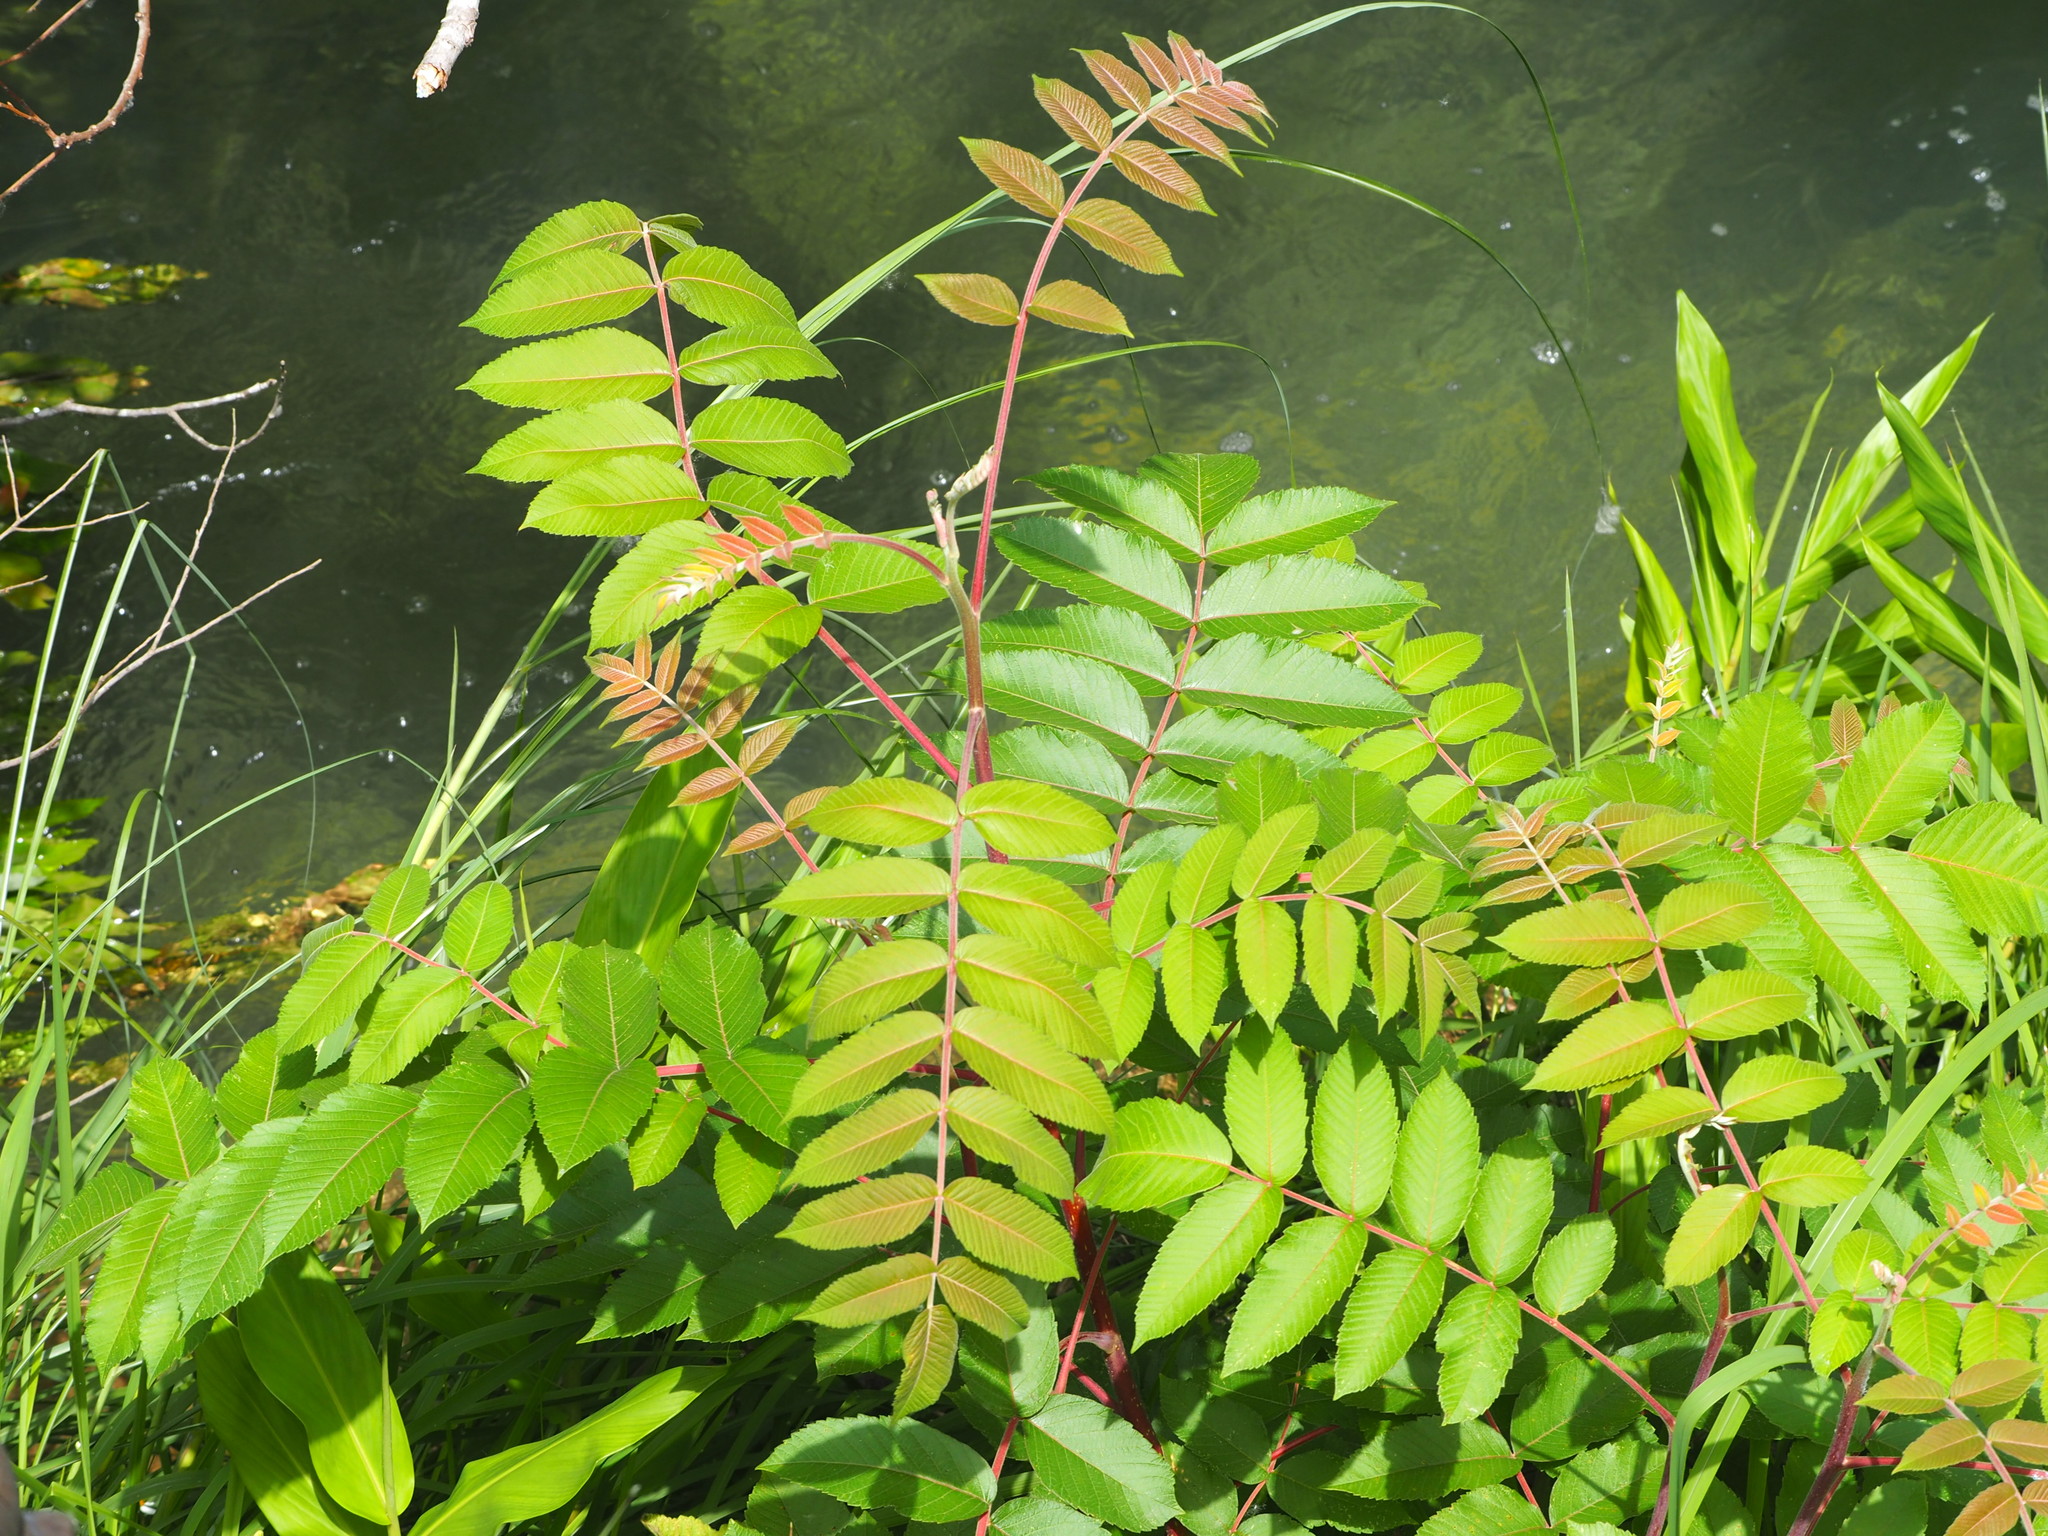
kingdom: Plantae
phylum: Tracheophyta
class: Magnoliopsida
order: Sapindales
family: Anacardiaceae
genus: Rhus
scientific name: Rhus chinensis
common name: Chinese gall
